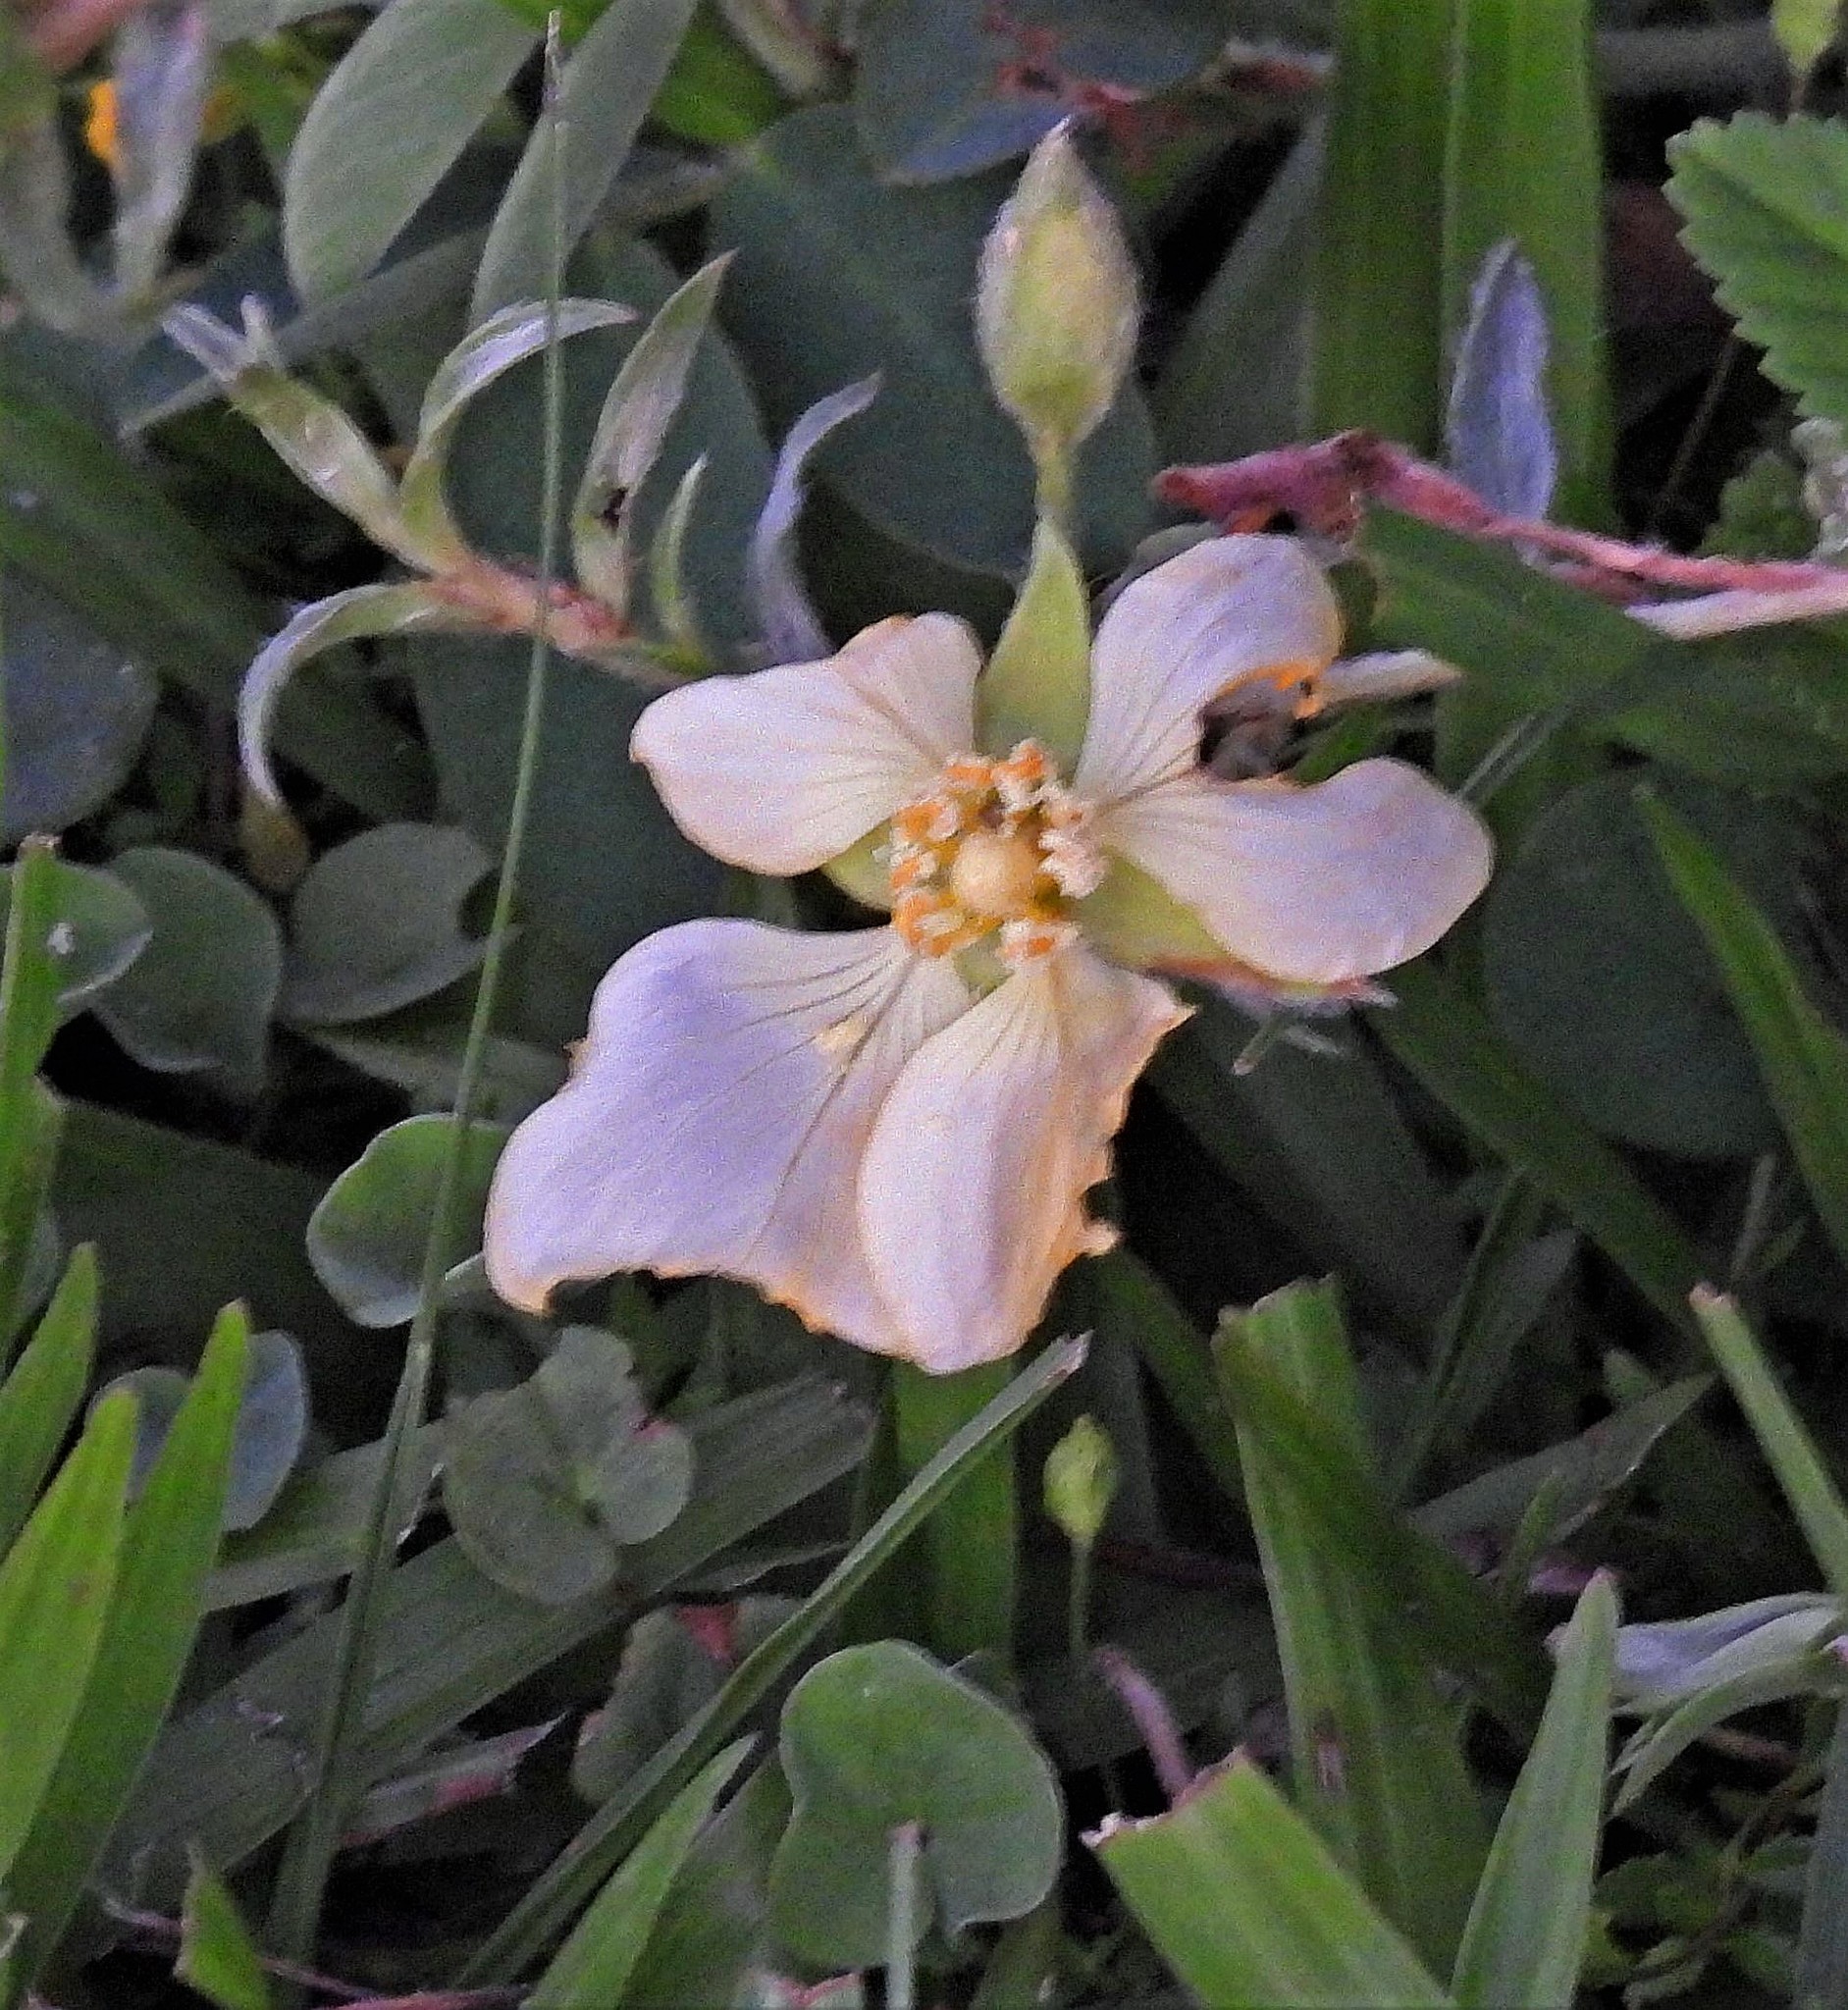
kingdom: Plantae
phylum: Tracheophyta
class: Magnoliopsida
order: Myrtales
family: Onagraceae
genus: Ludwigia
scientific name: Ludwigia sericea
